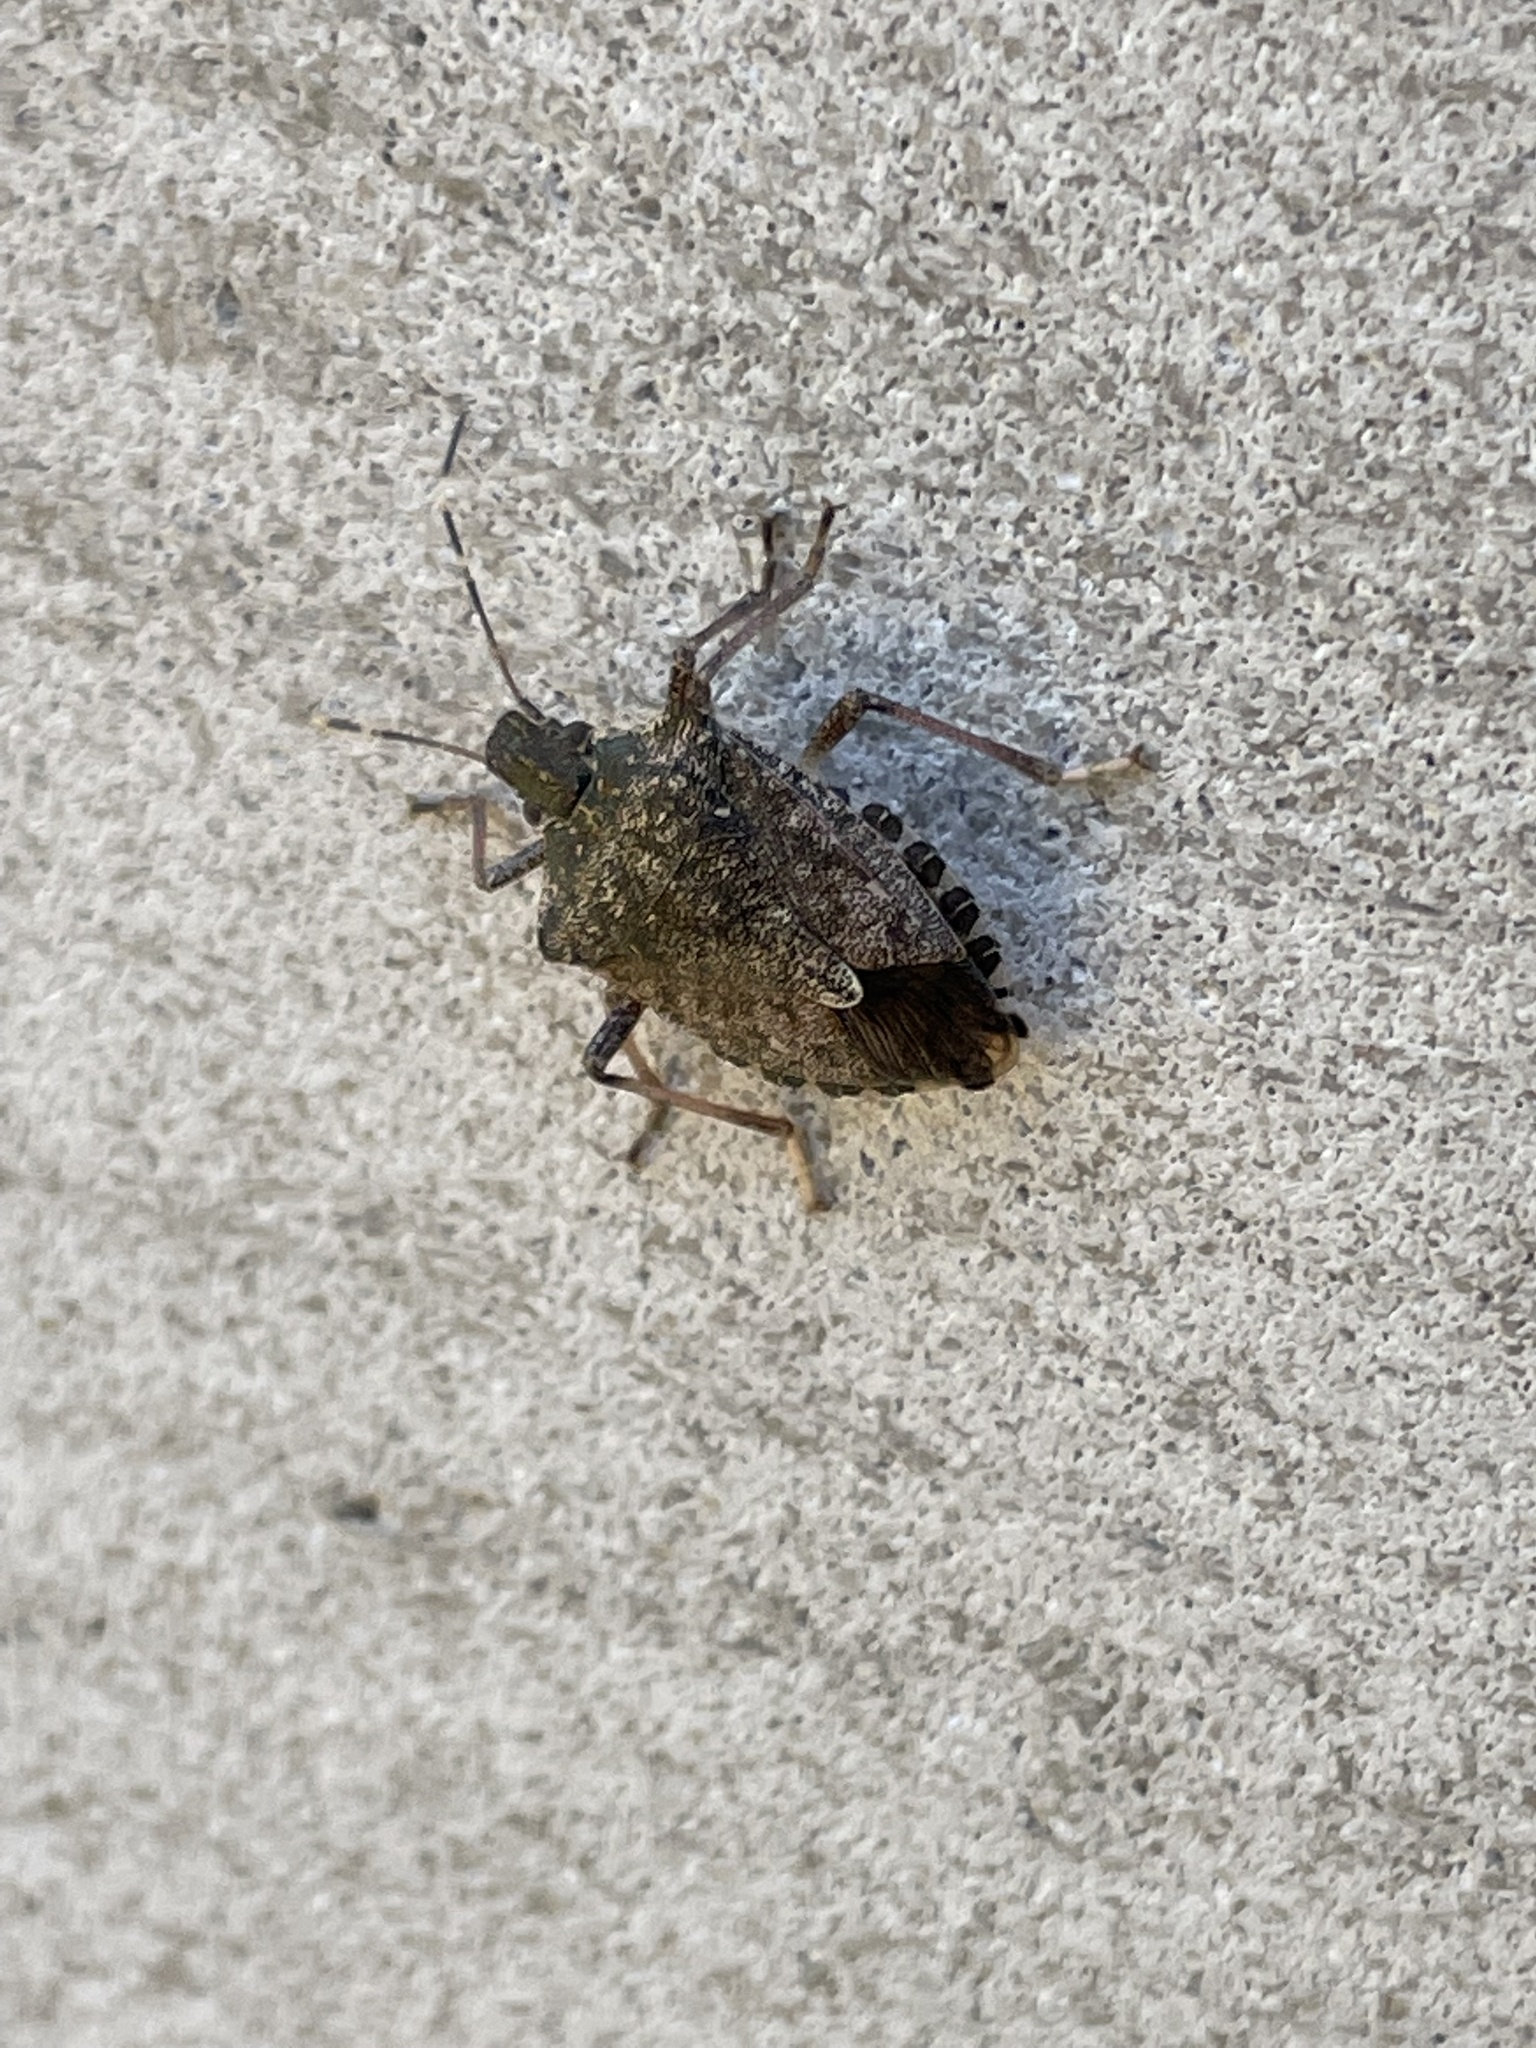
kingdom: Animalia
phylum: Arthropoda
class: Insecta
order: Hemiptera
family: Pentatomidae
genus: Halyomorpha
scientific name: Halyomorpha halys
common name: Brown marmorated stink bug
